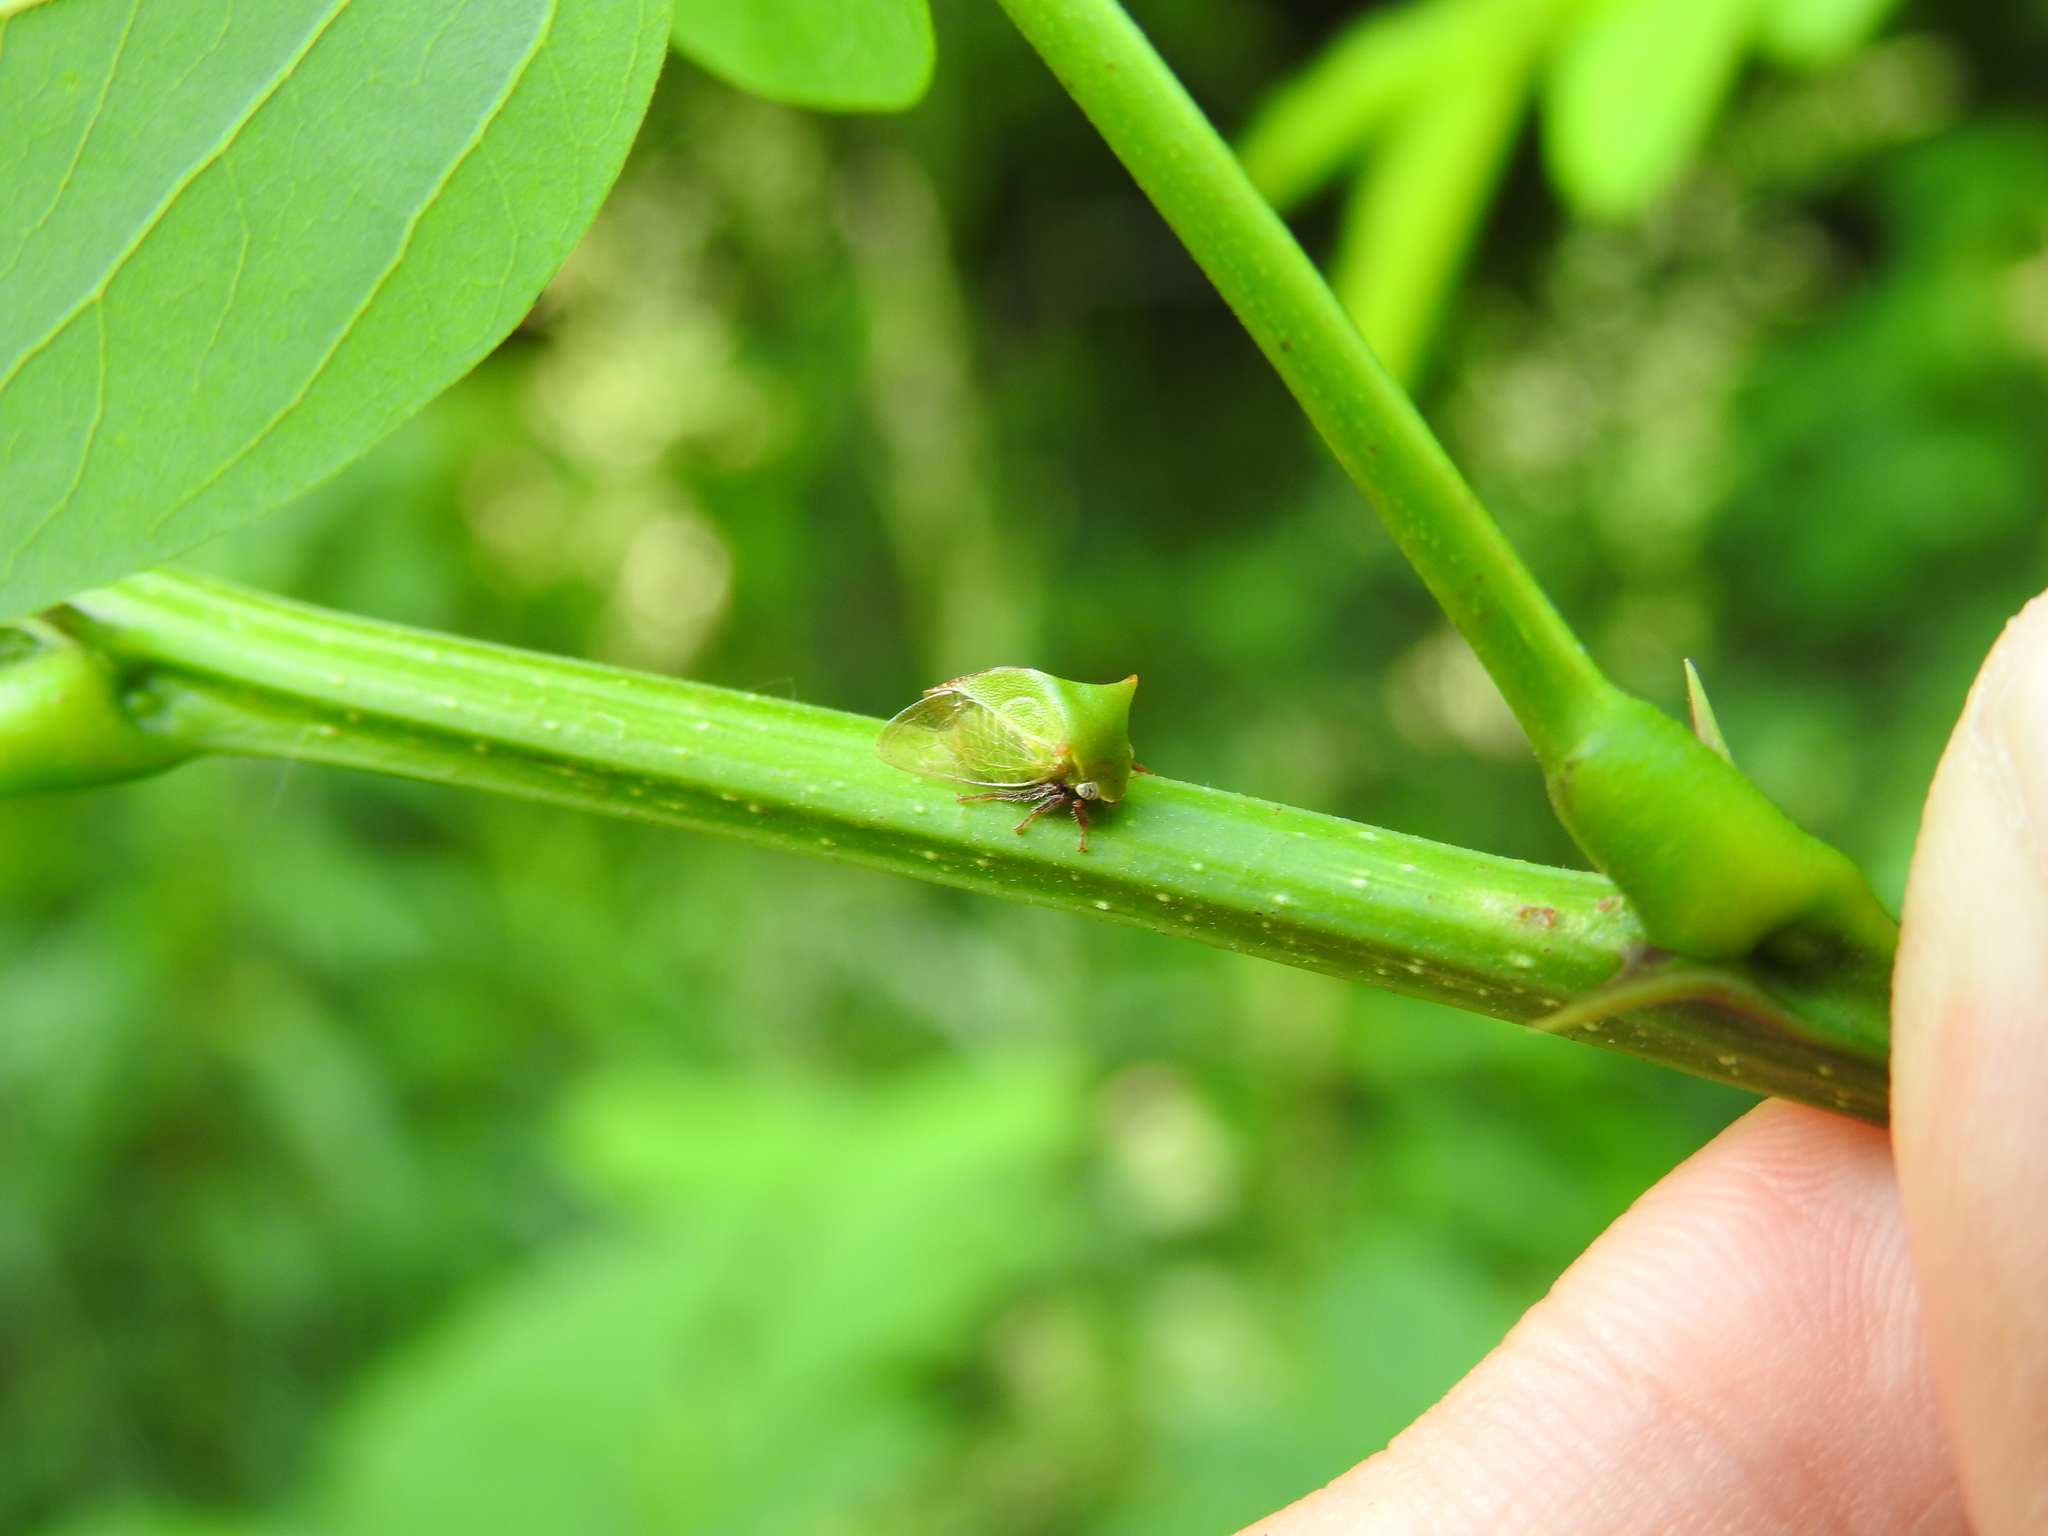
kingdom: Animalia
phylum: Arthropoda
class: Insecta
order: Hemiptera
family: Membracidae
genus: Stictocephala
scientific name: Stictocephala brevitylus
